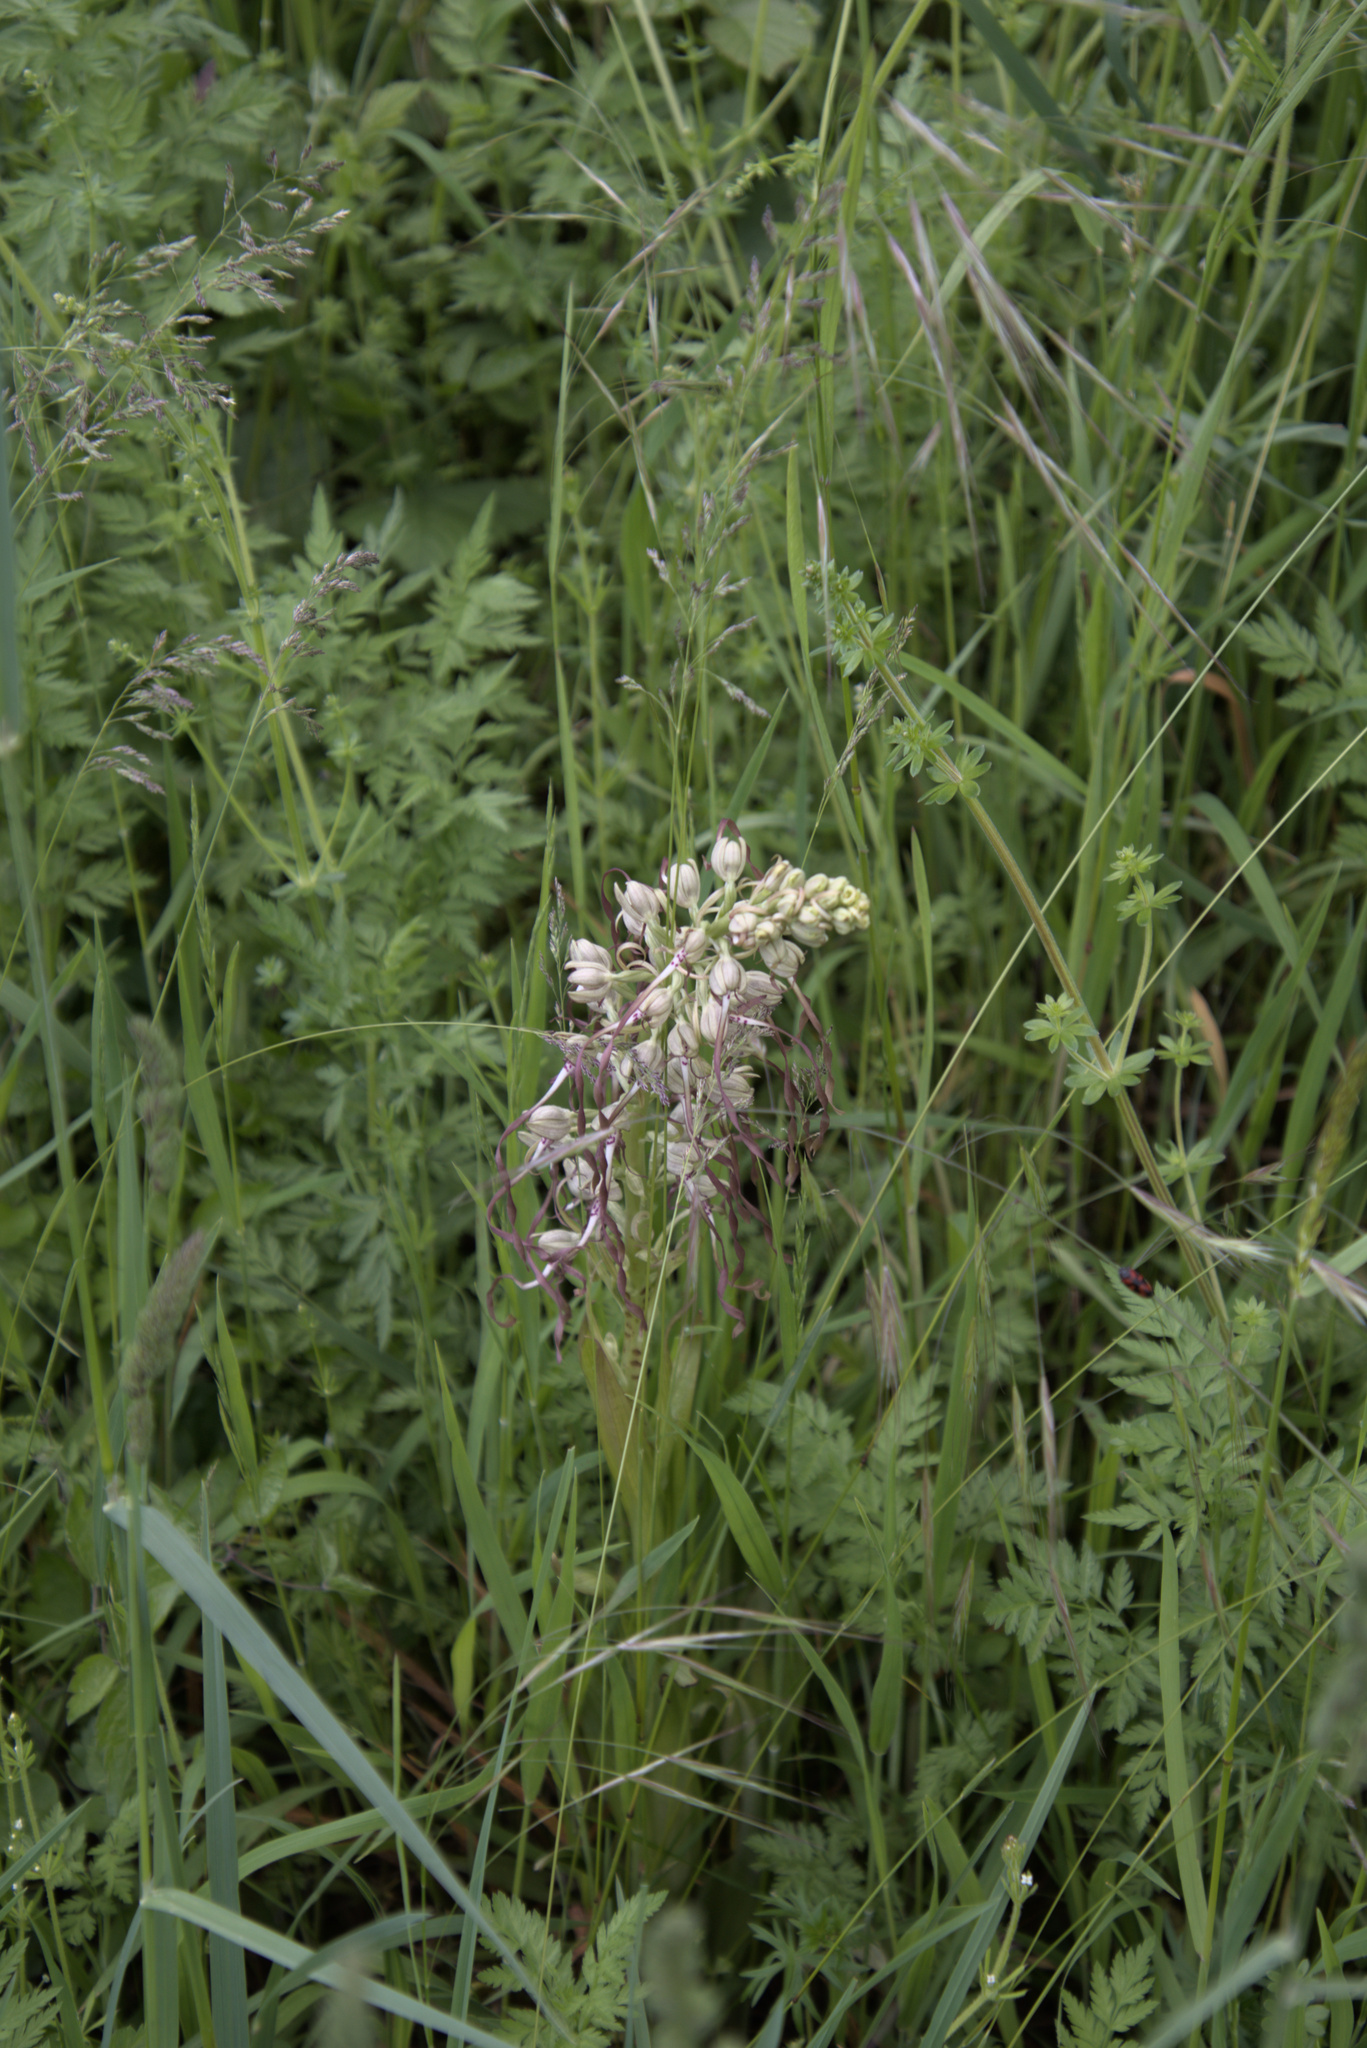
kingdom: Plantae
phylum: Tracheophyta
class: Liliopsida
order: Asparagales
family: Orchidaceae
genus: Himantoglossum
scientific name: Himantoglossum hircinum
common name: Lizard orchid
